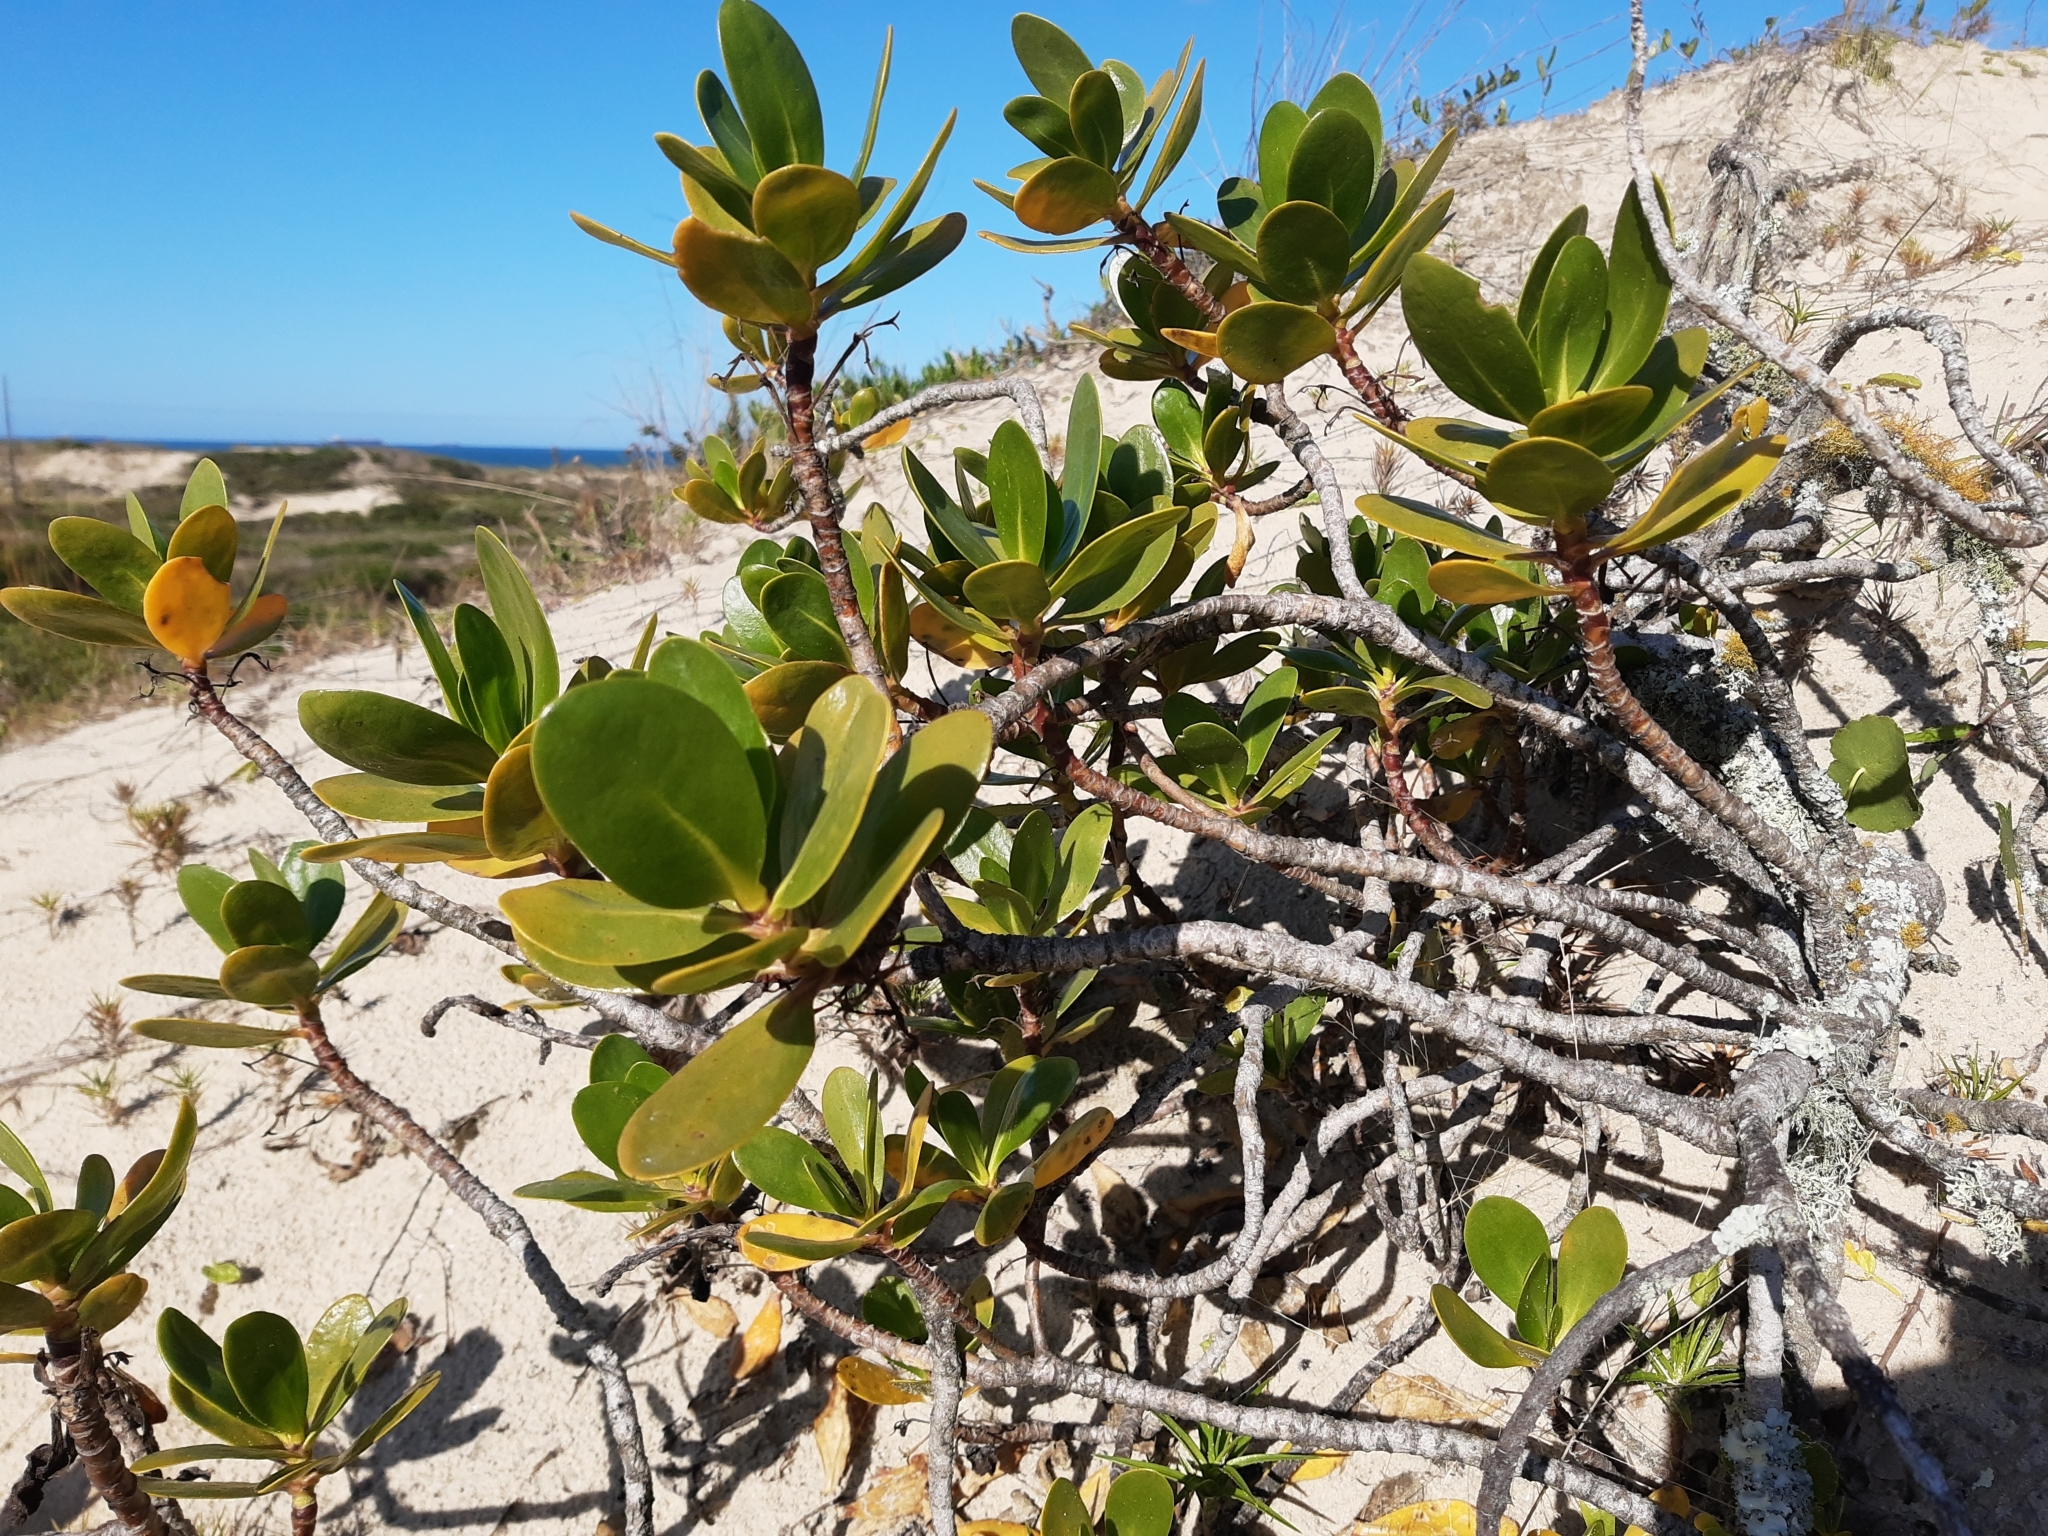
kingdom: Plantae
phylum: Tracheophyta
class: Magnoliopsida
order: Asterales
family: Goodeniaceae
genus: Scaevola
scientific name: Scaevola plumieri
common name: Gull feed
